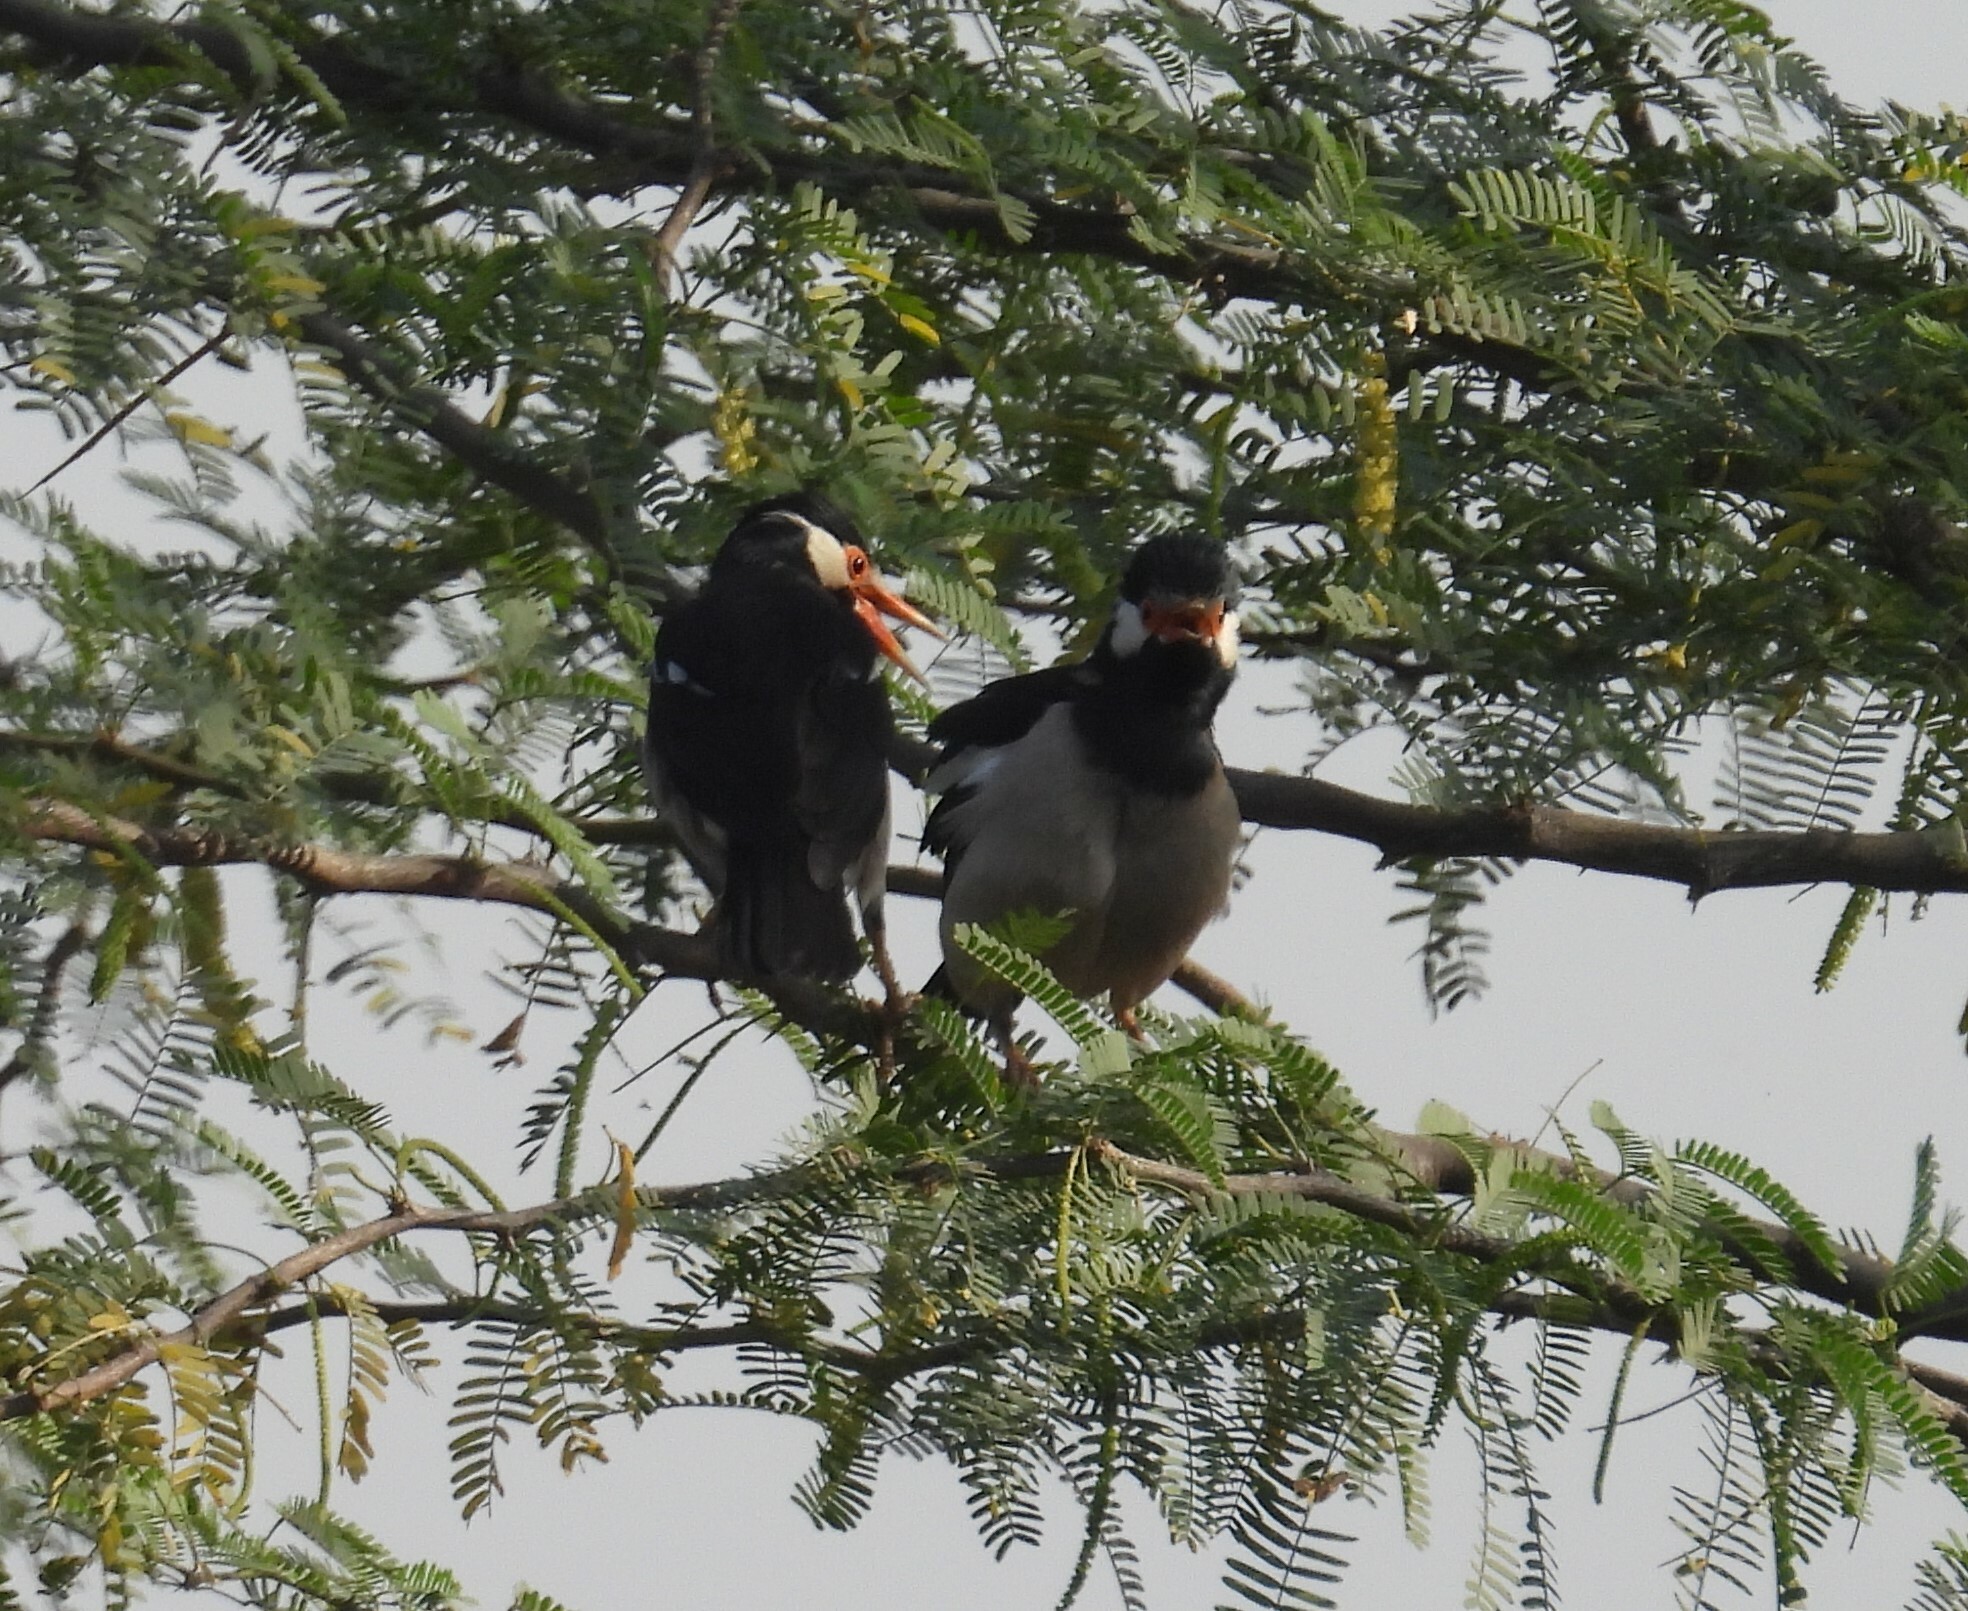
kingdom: Animalia
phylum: Chordata
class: Aves
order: Passeriformes
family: Sturnidae
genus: Gracupica
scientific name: Gracupica contra
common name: Pied myna
